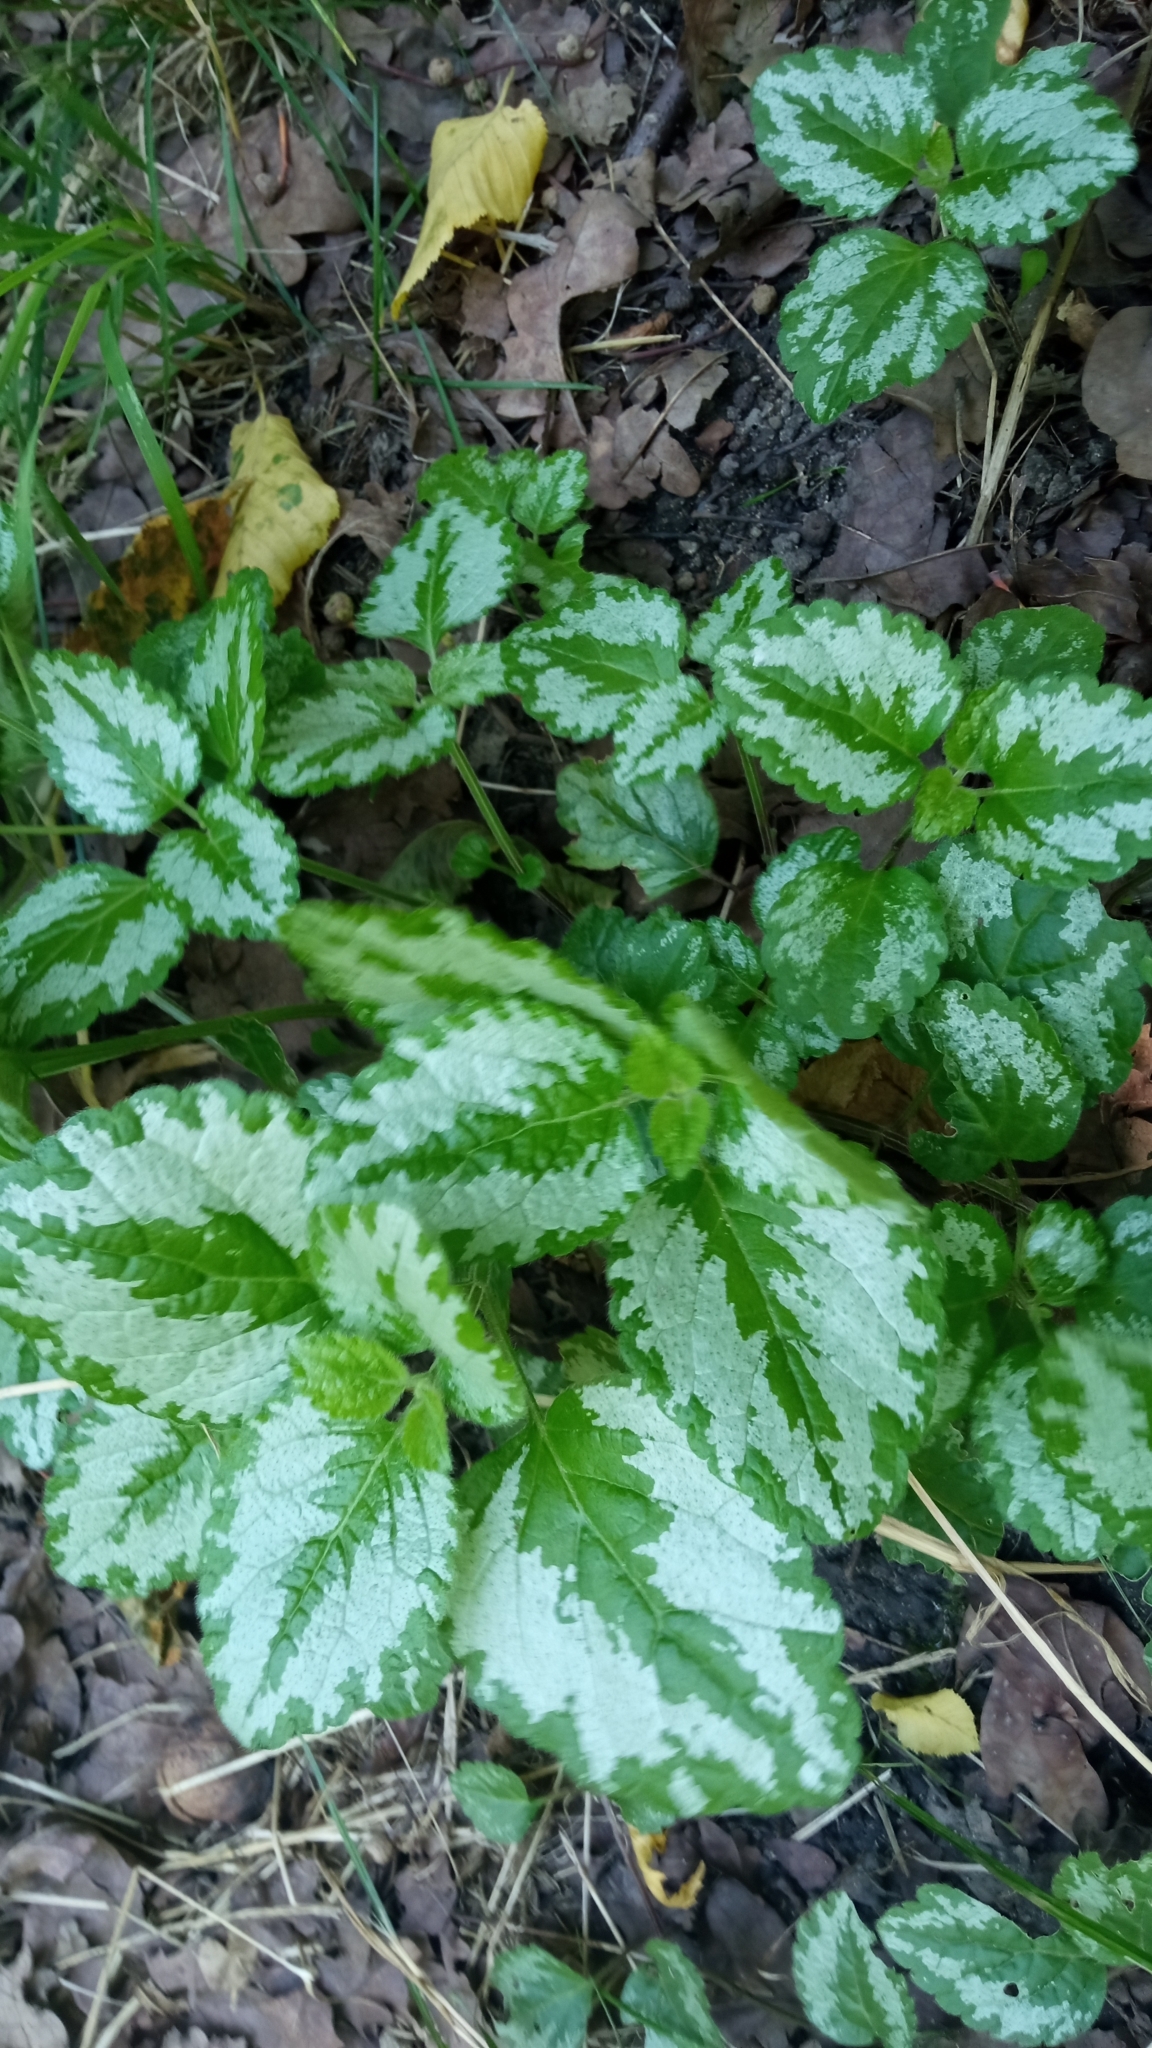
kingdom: Plantae
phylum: Tracheophyta
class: Magnoliopsida
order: Lamiales
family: Lamiaceae
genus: Lamium
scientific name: Lamium galeobdolon
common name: Yellow archangel
